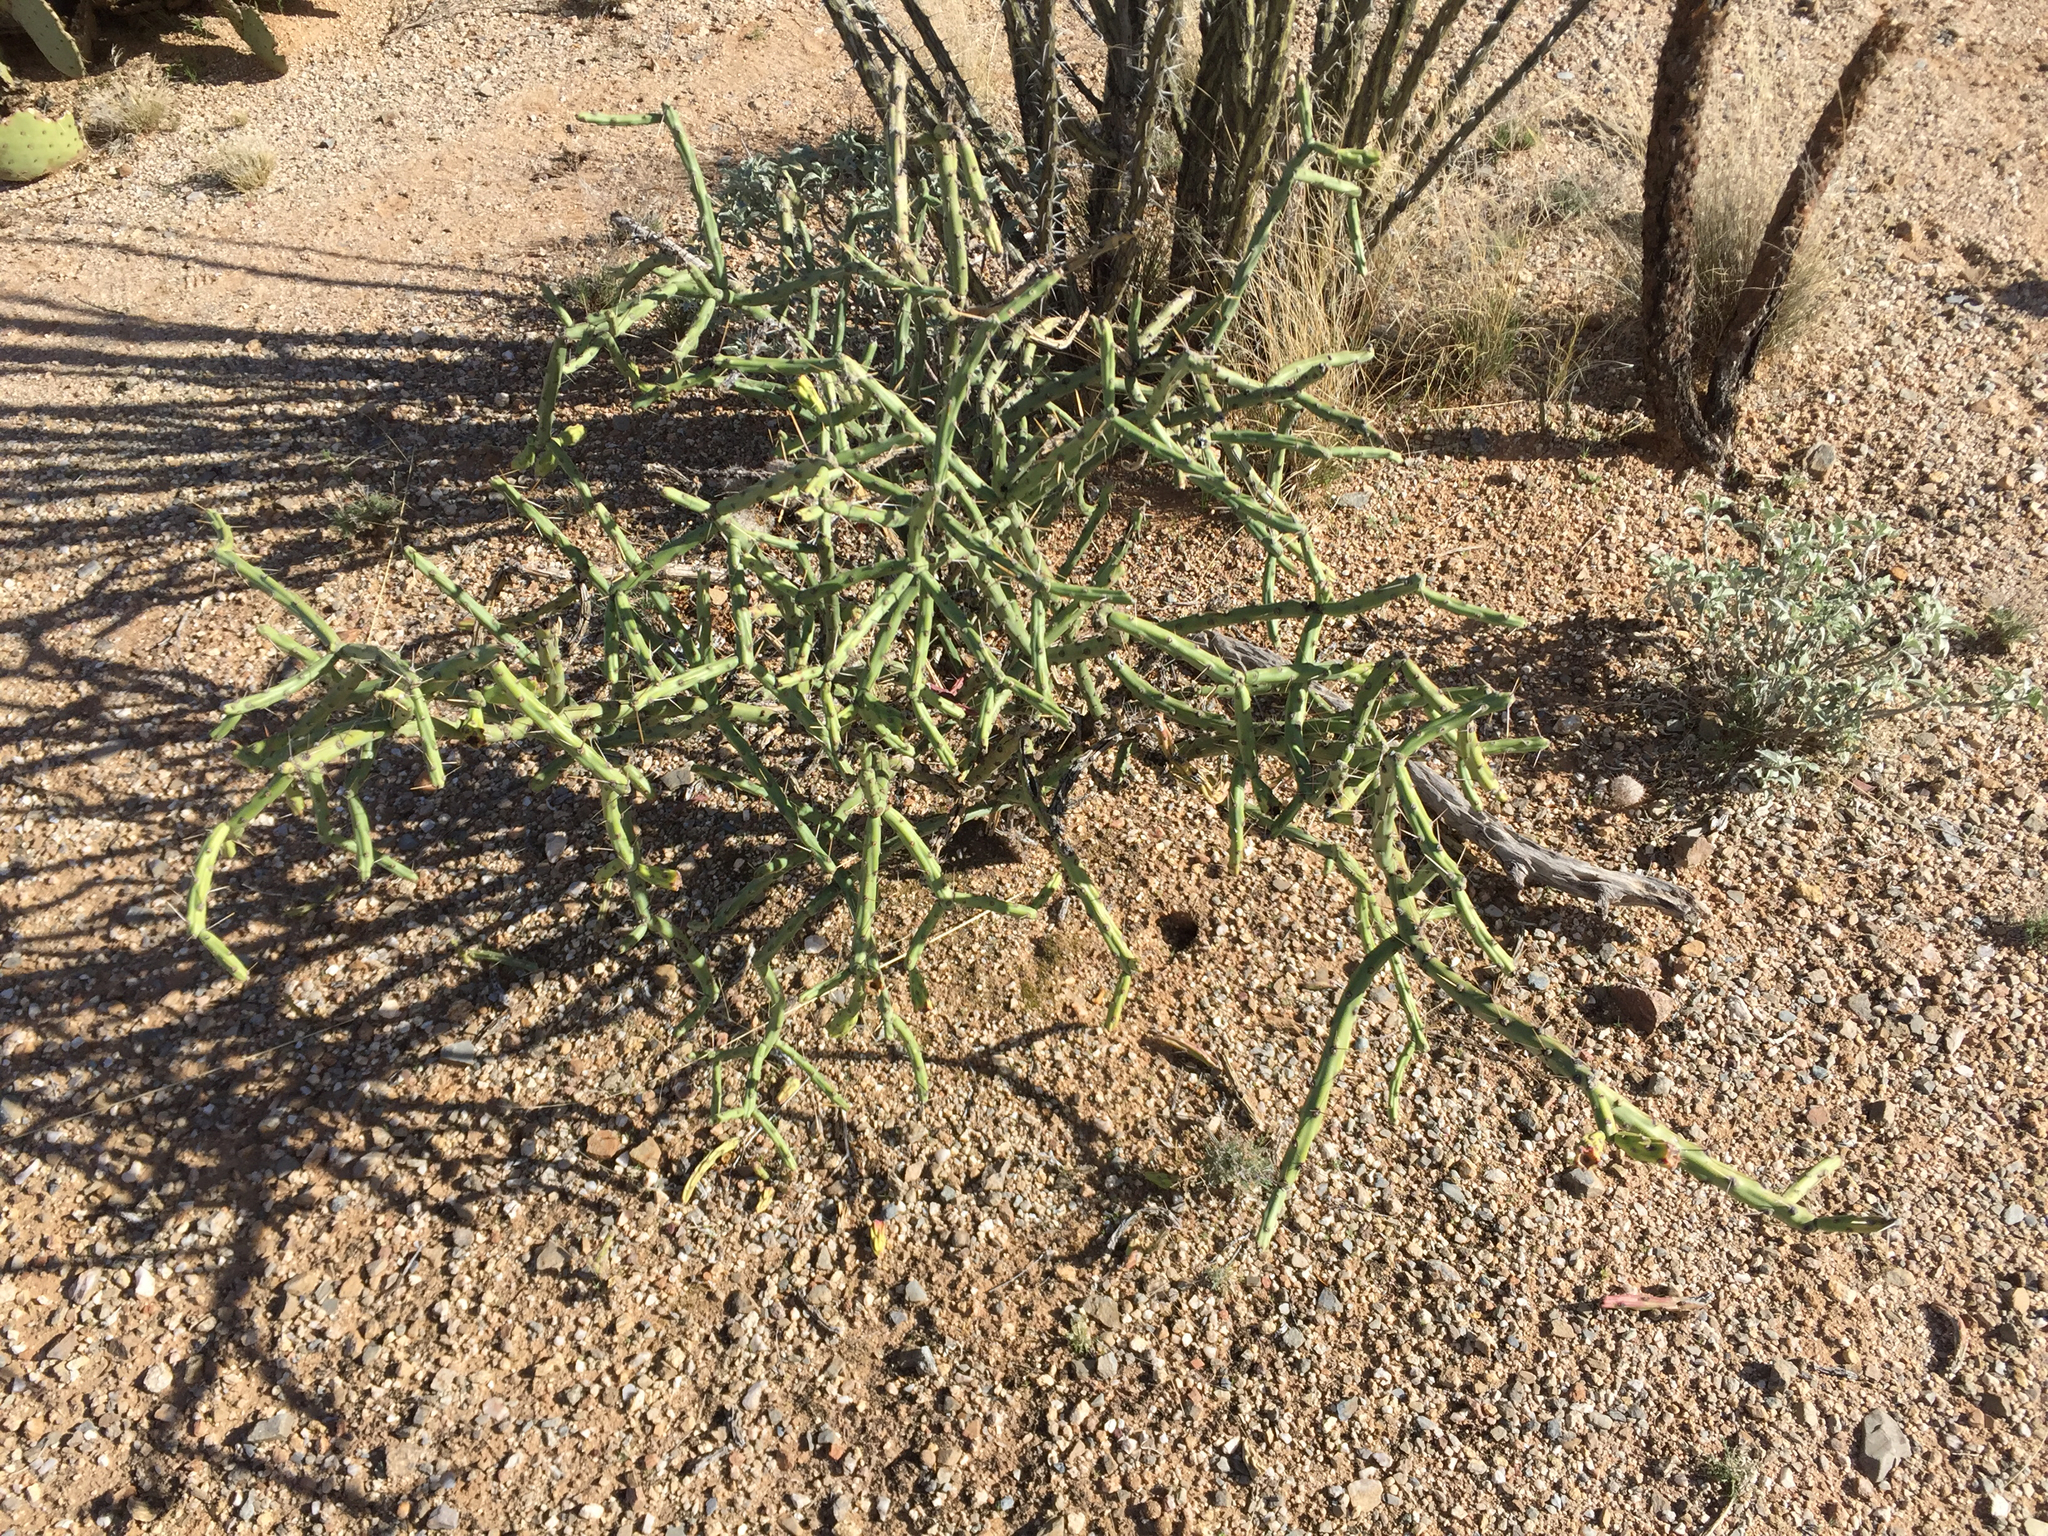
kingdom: Plantae
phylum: Tracheophyta
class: Magnoliopsida
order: Caryophyllales
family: Cactaceae
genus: Cylindropuntia
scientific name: Cylindropuntia arbuscula
